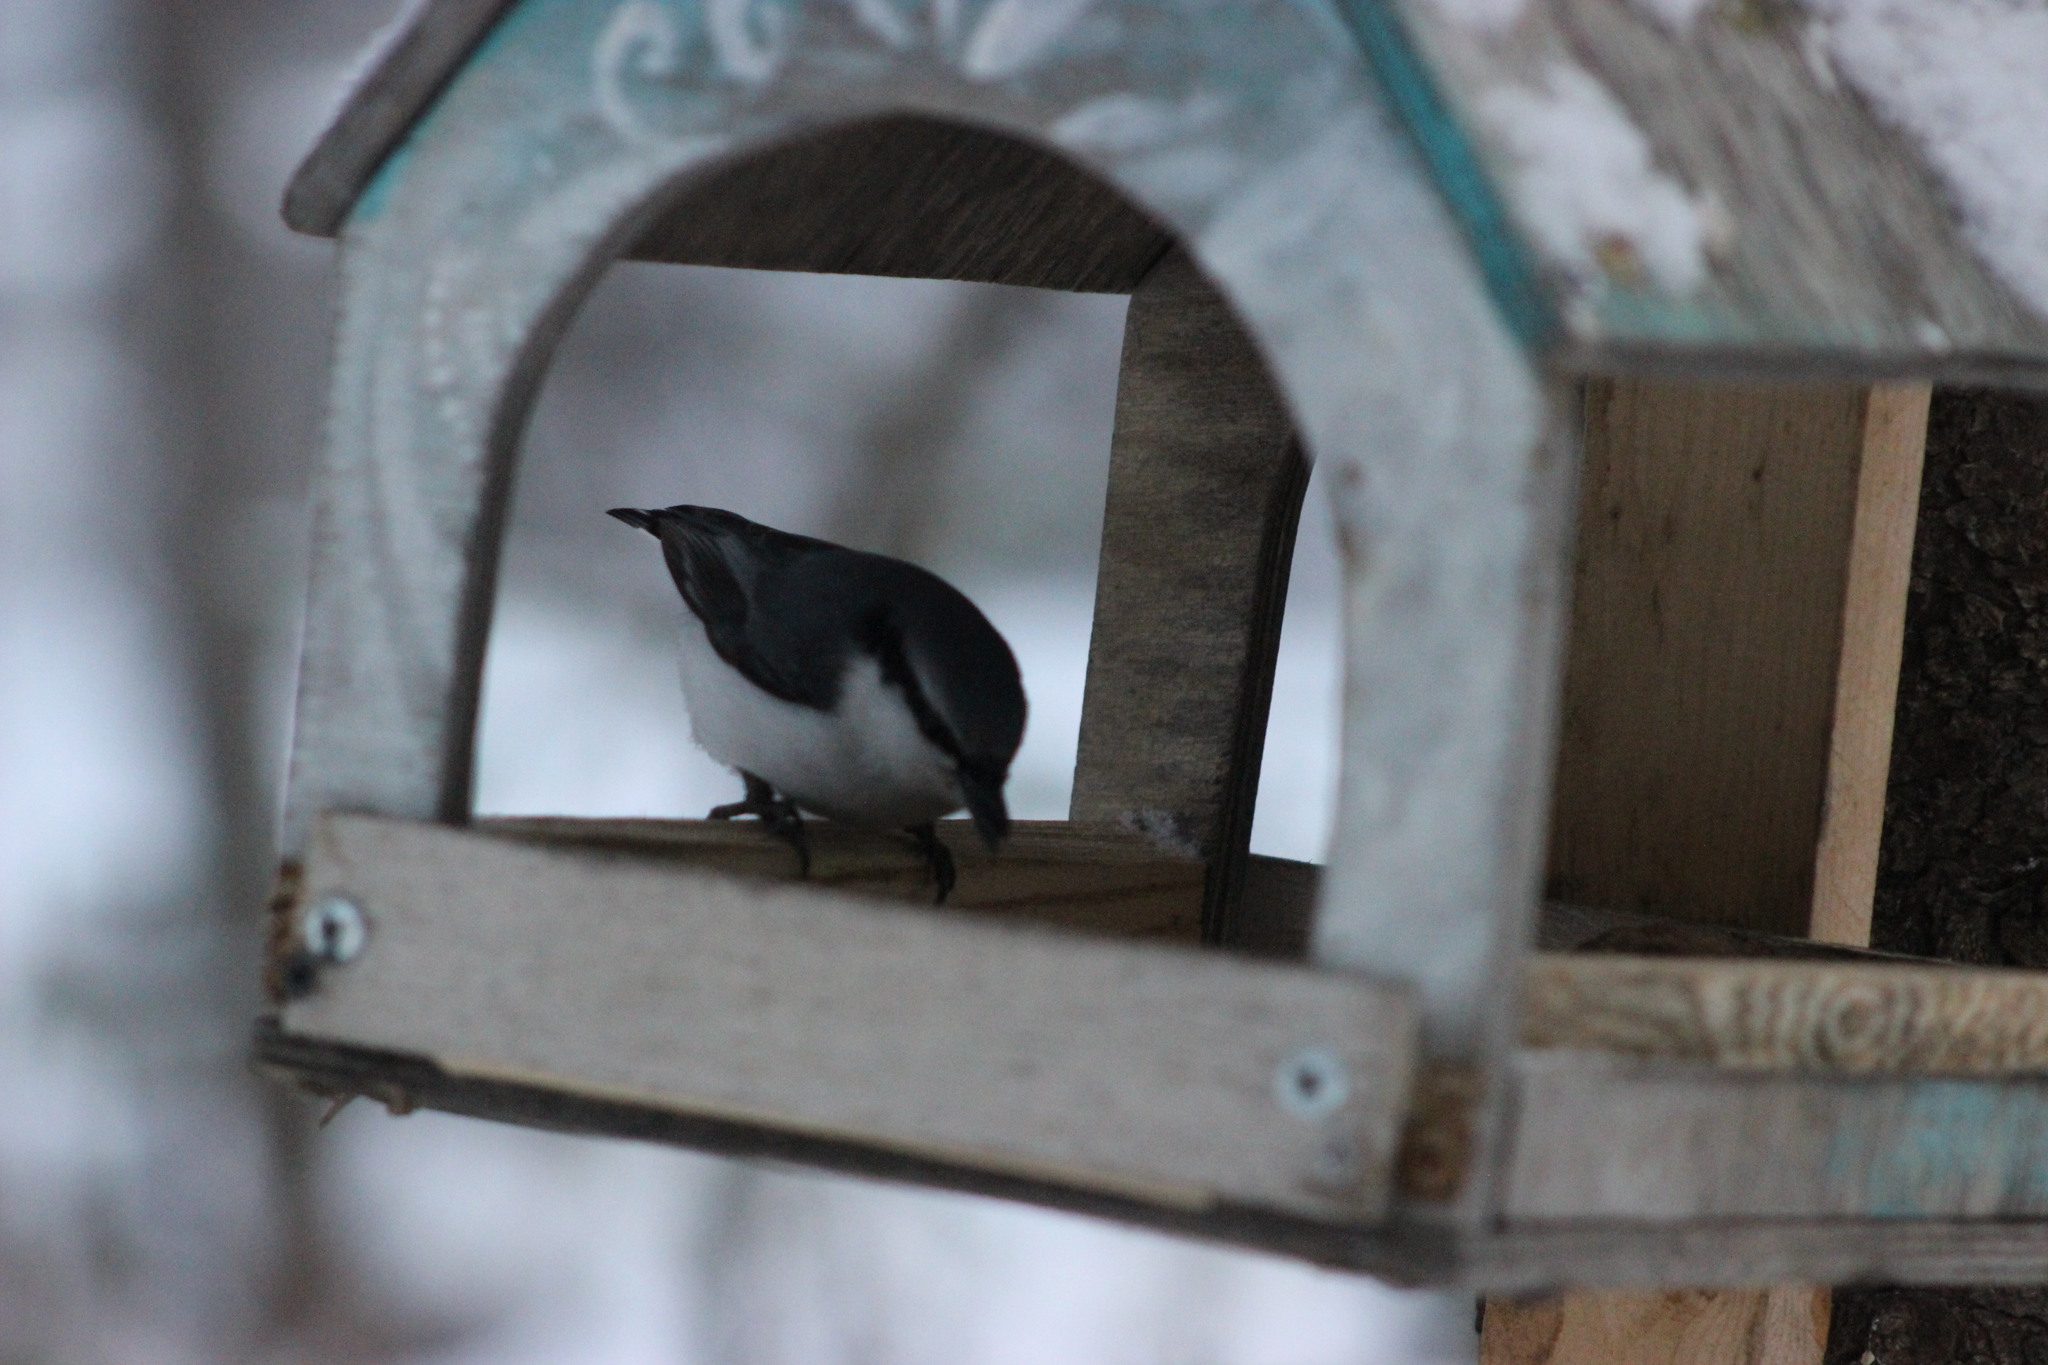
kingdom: Animalia
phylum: Chordata
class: Aves
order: Passeriformes
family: Sittidae
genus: Sitta
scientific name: Sitta europaea
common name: Eurasian nuthatch
